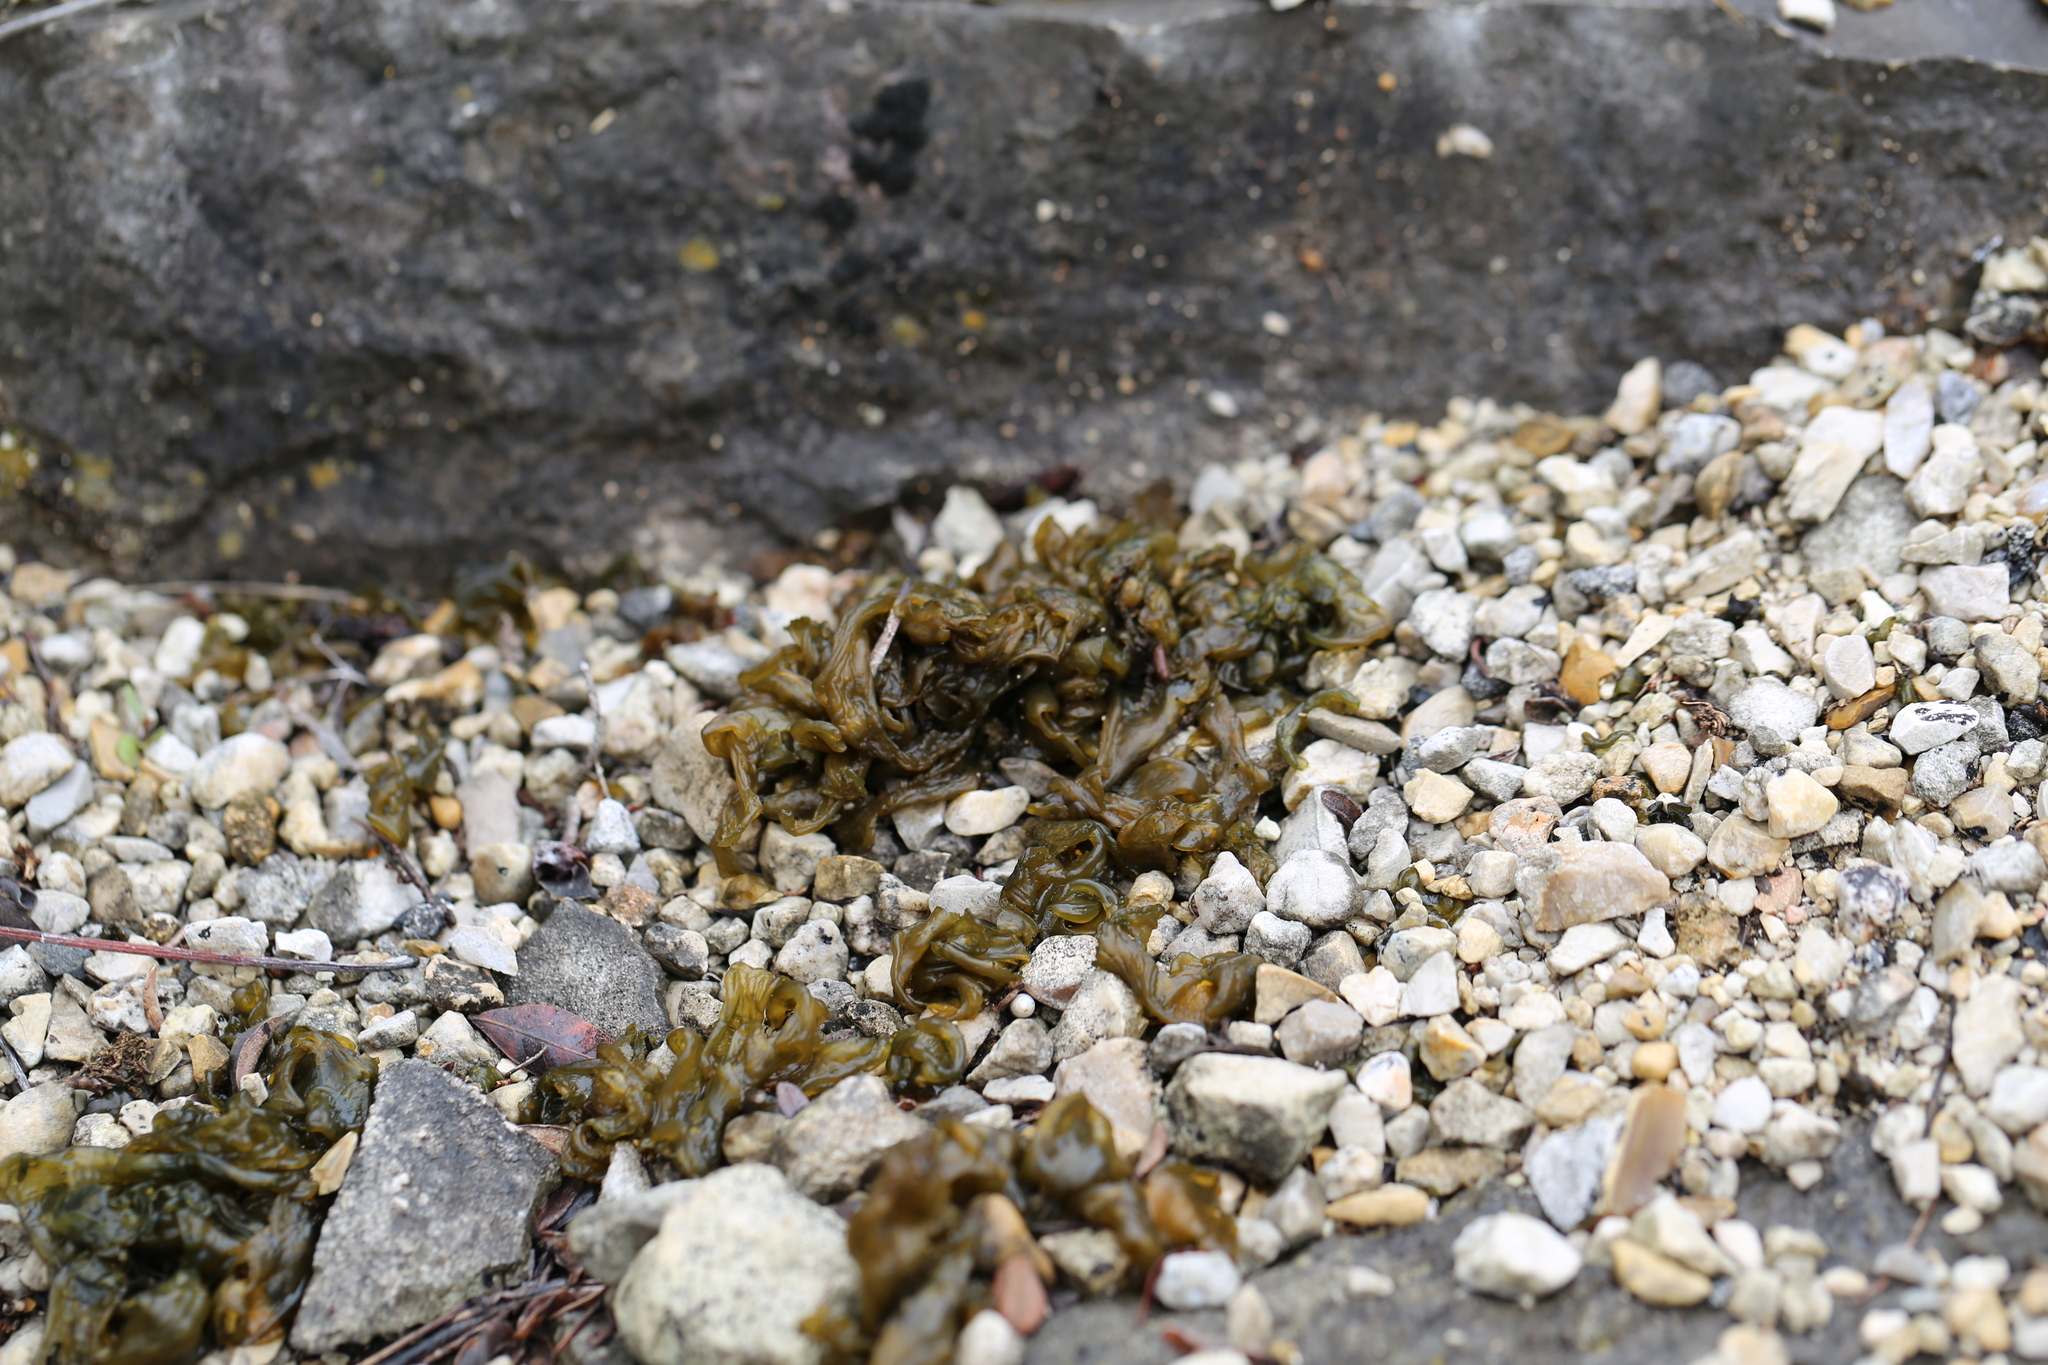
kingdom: Bacteria
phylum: Cyanobacteria
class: Cyanobacteriia
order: Cyanobacteriales
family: Nostocaceae
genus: Nostoc
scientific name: Nostoc commune
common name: Star jelly
